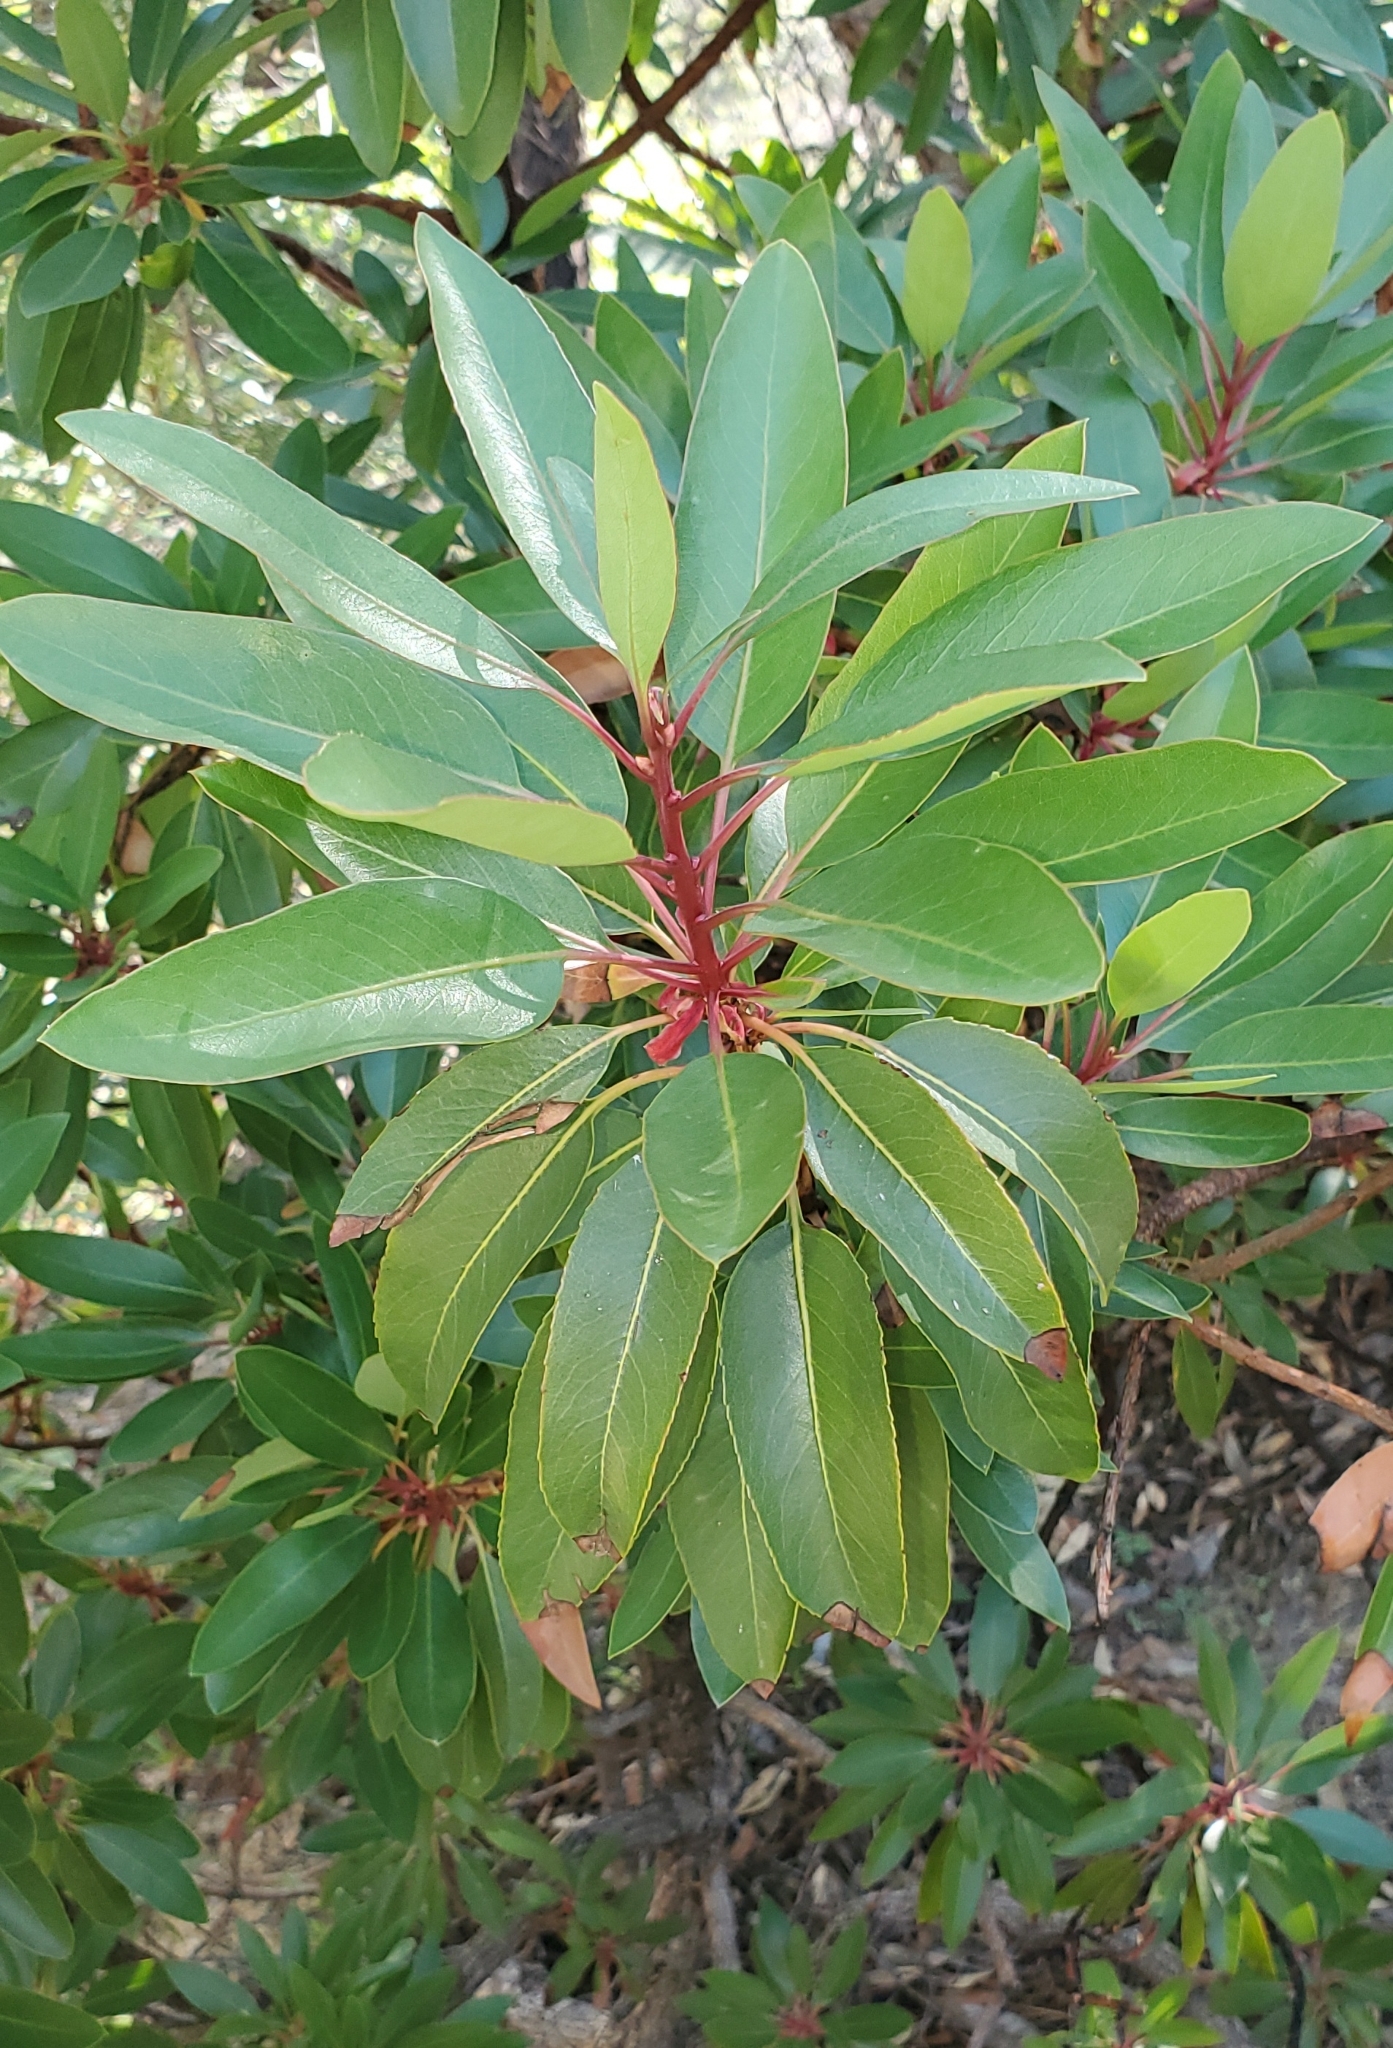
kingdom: Plantae
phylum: Tracheophyta
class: Magnoliopsida
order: Ericales
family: Ericaceae
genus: Arbutus
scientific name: Arbutus arizonica
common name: Arizona madrone
